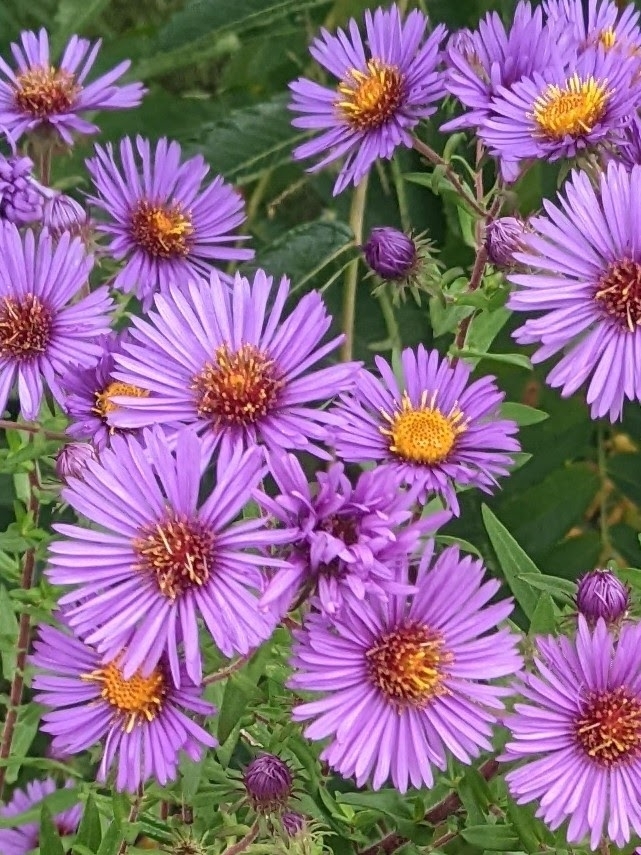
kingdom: Plantae
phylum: Tracheophyta
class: Magnoliopsida
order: Asterales
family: Asteraceae
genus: Symphyotrichum
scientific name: Symphyotrichum novae-angliae
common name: Michaelmas daisy
